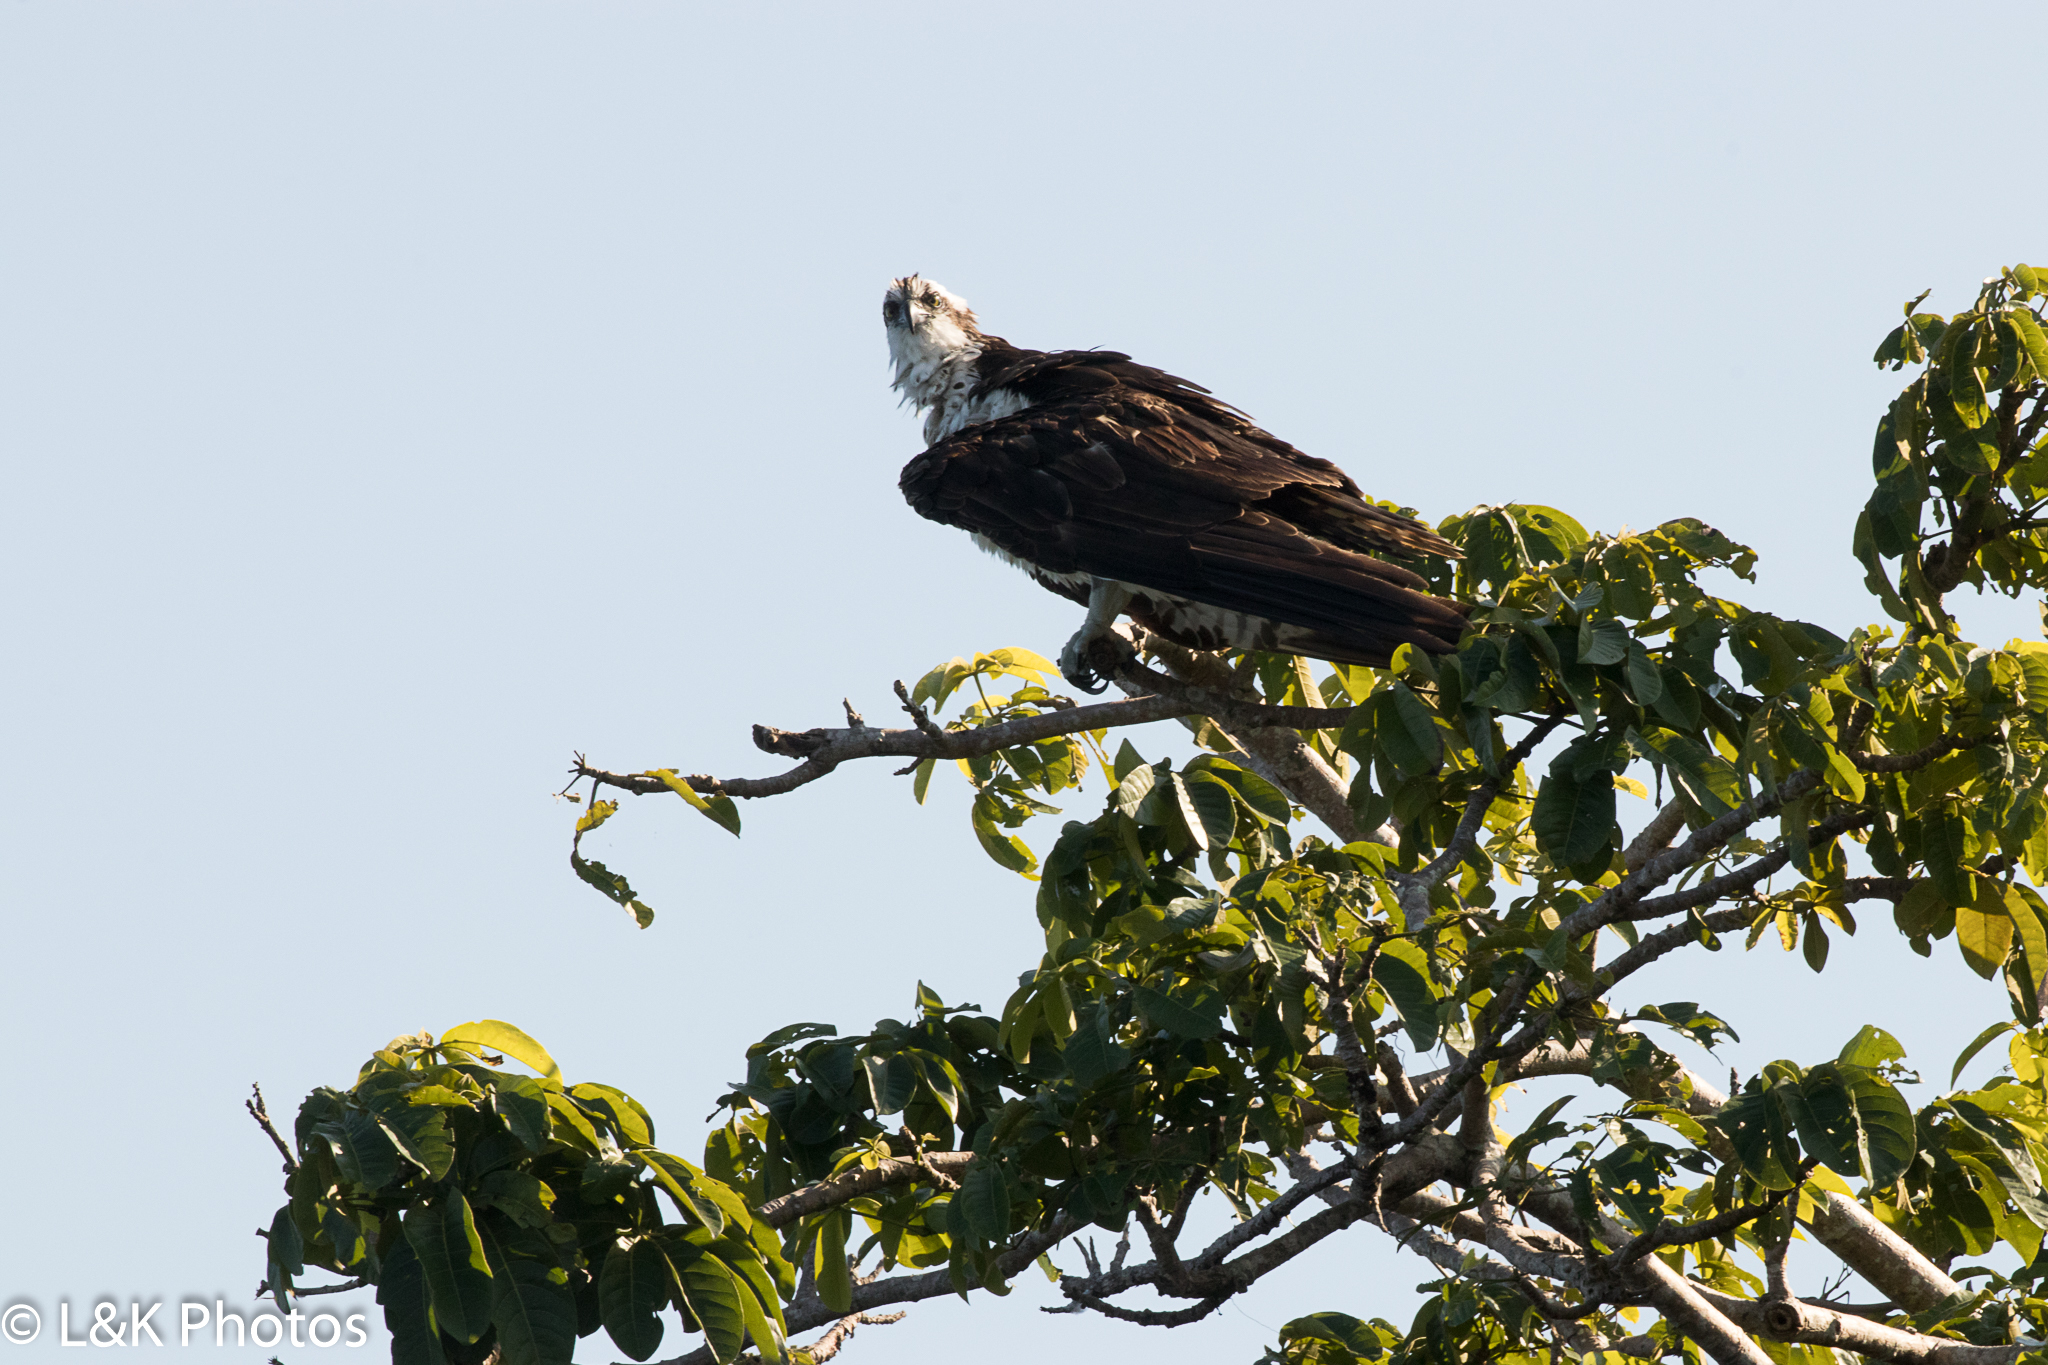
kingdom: Animalia
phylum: Chordata
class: Aves
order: Accipitriformes
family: Pandionidae
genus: Pandion
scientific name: Pandion haliaetus
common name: Osprey
